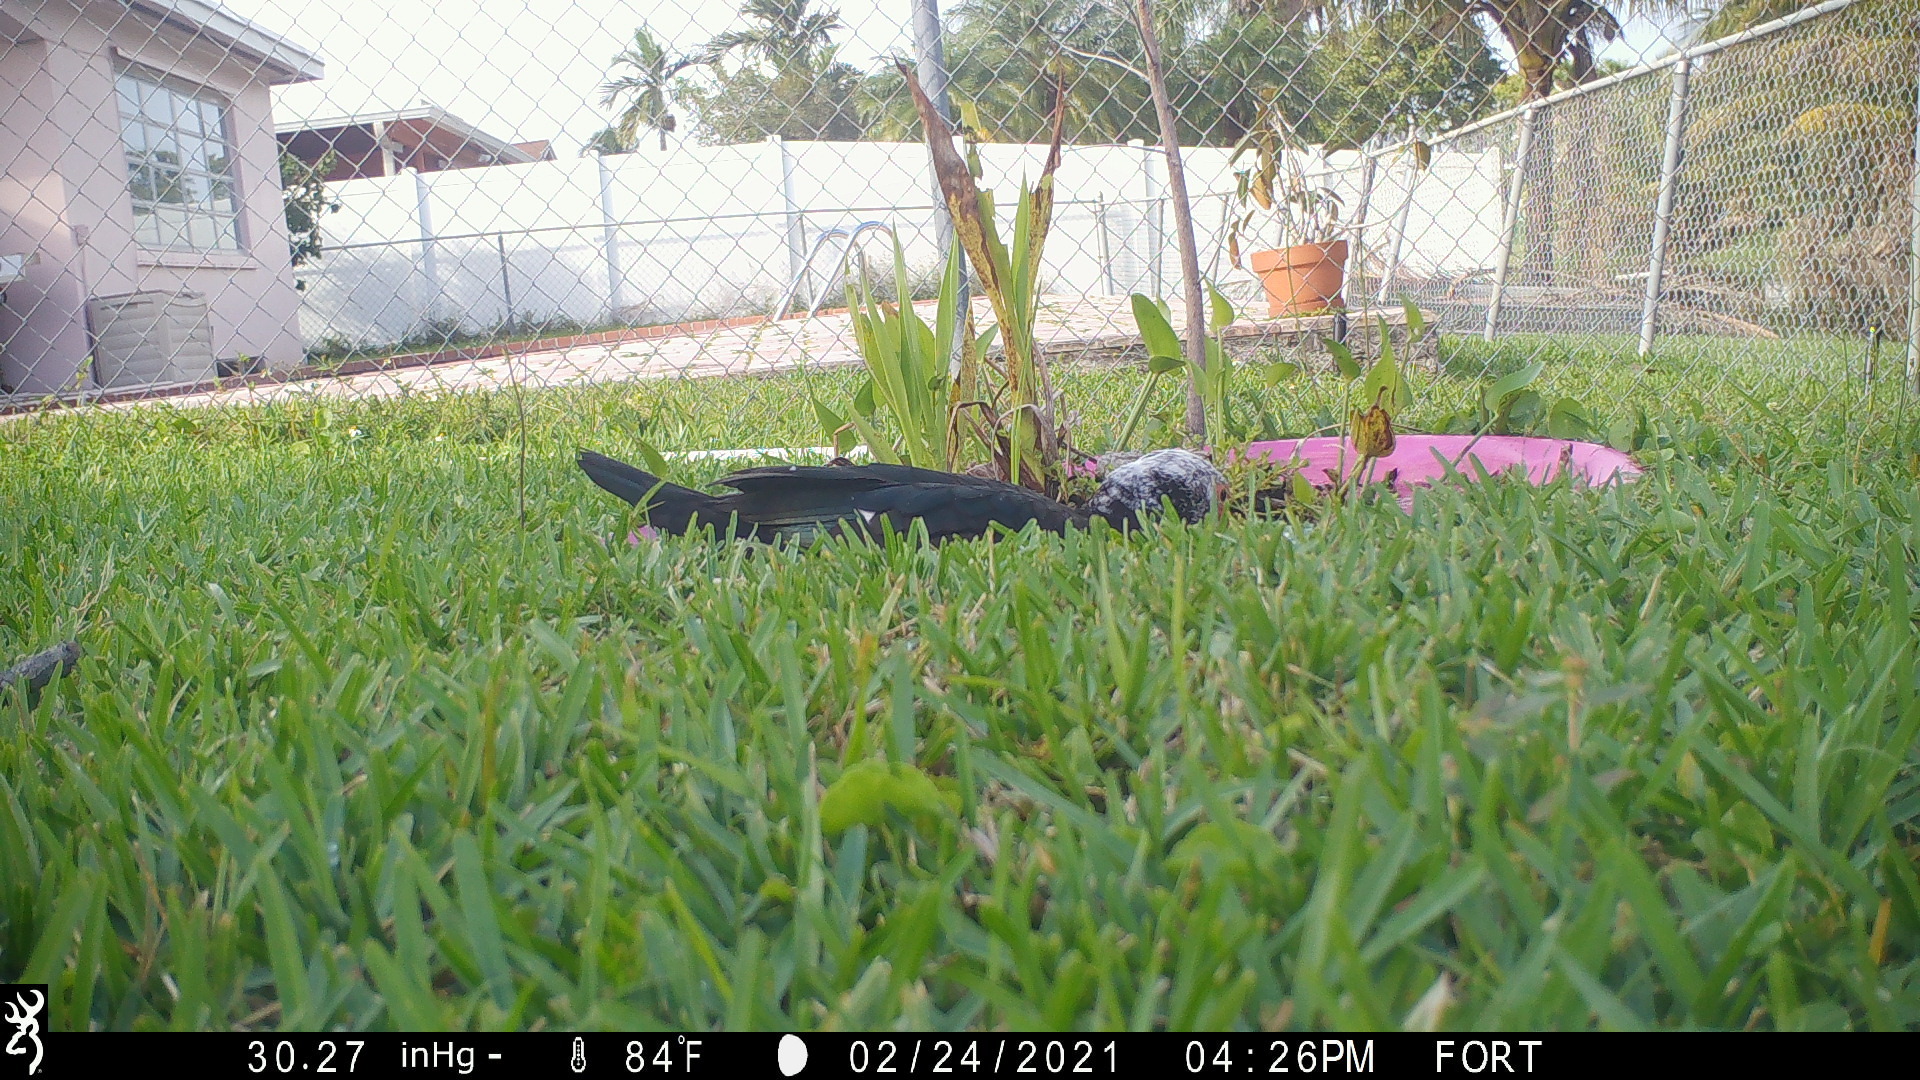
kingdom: Animalia
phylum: Chordata
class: Aves
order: Anseriformes
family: Anatidae
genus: Cairina
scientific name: Cairina moschata
